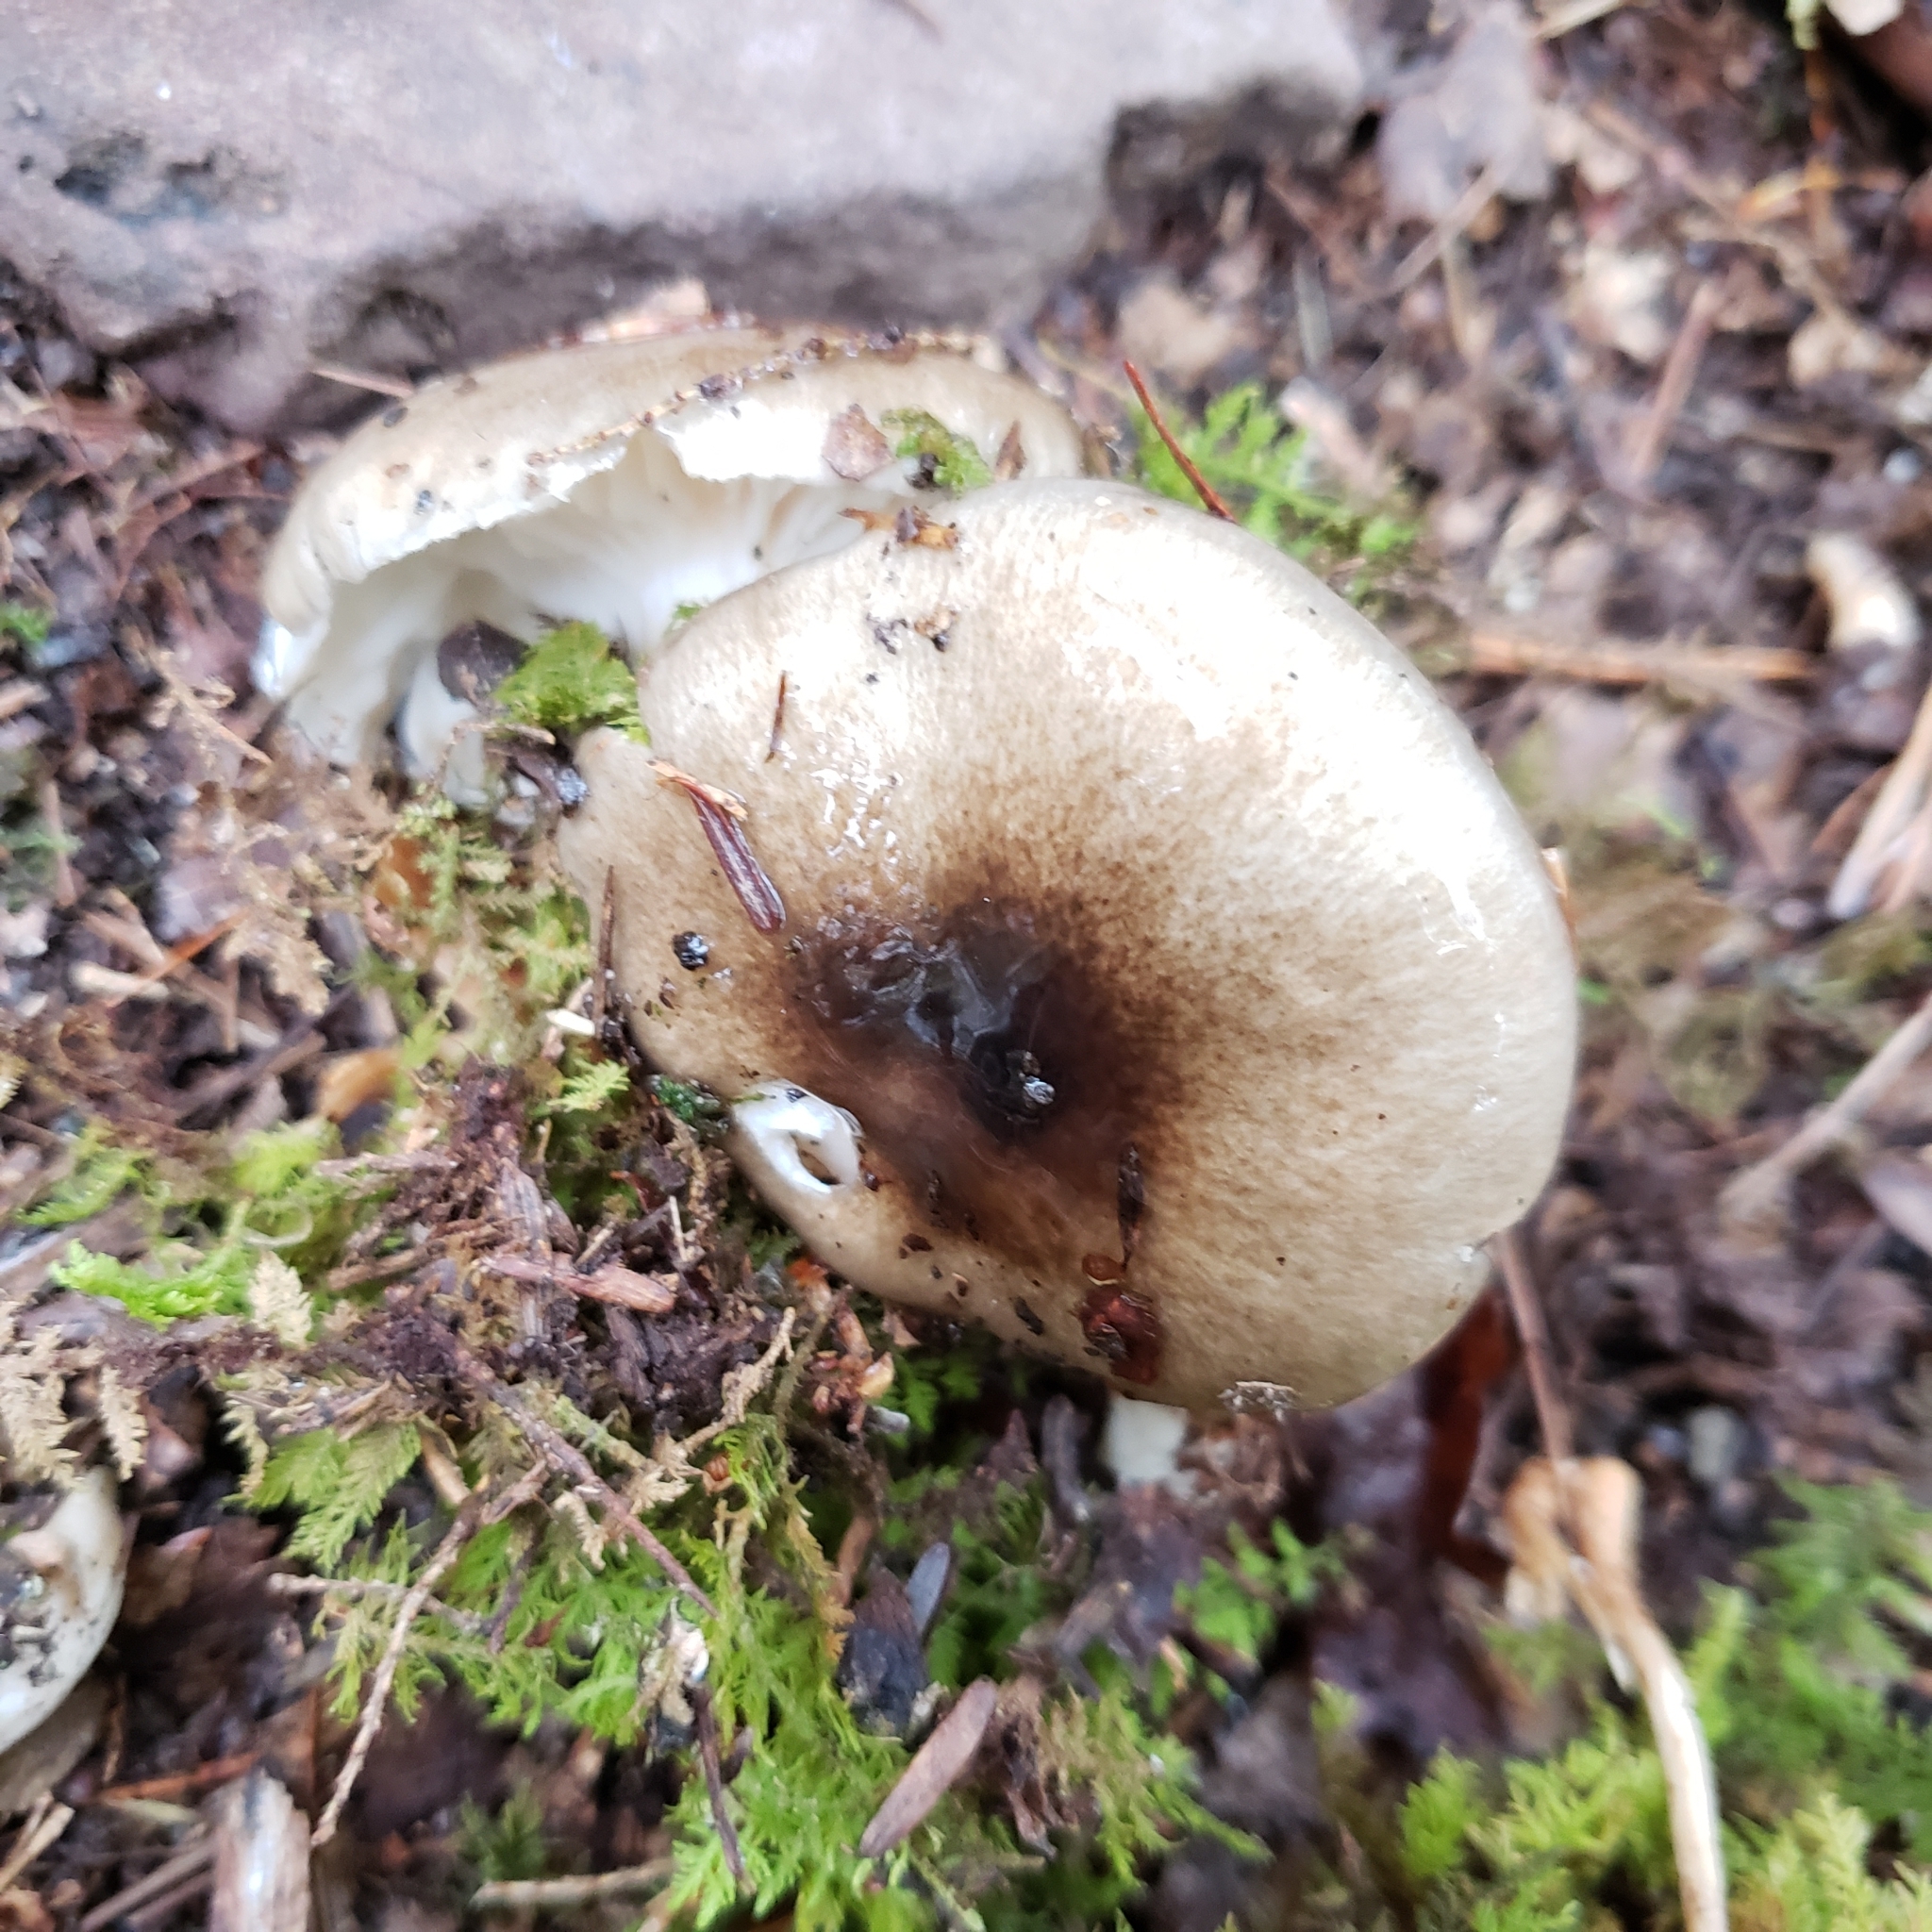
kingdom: Fungi
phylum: Basidiomycota
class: Agaricomycetes
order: Agaricales
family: Hygrophoraceae
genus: Hygrophorus
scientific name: Hygrophorus fuligineus
